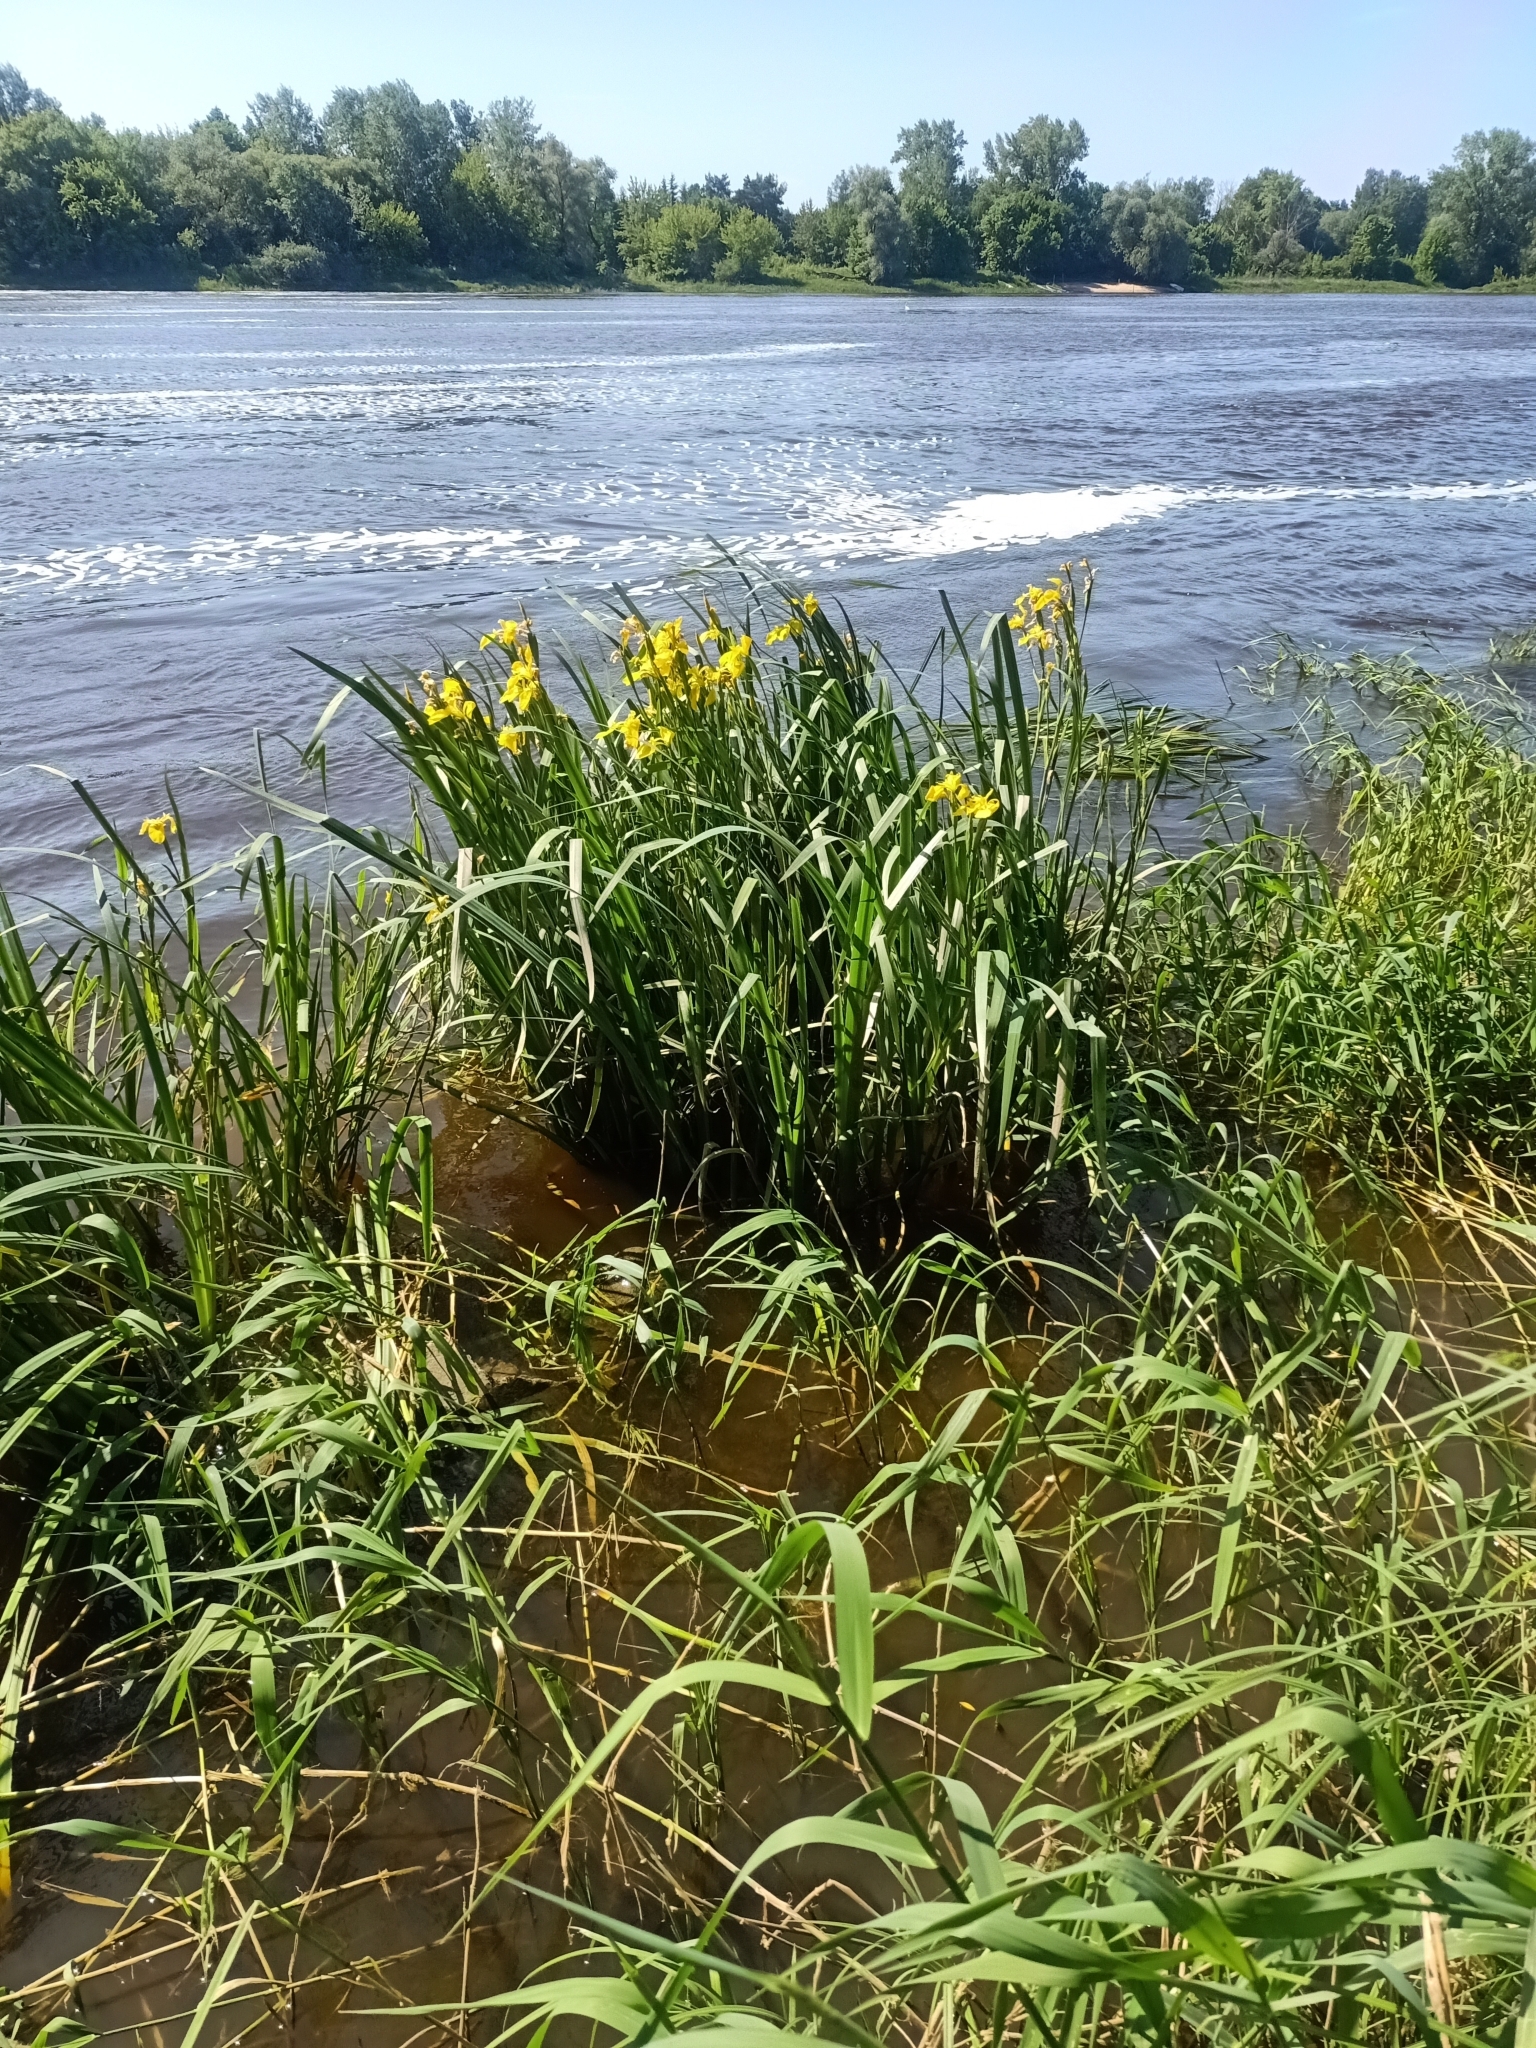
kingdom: Plantae
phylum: Tracheophyta
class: Liliopsida
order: Asparagales
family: Iridaceae
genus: Iris
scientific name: Iris pseudacorus
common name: Yellow flag
